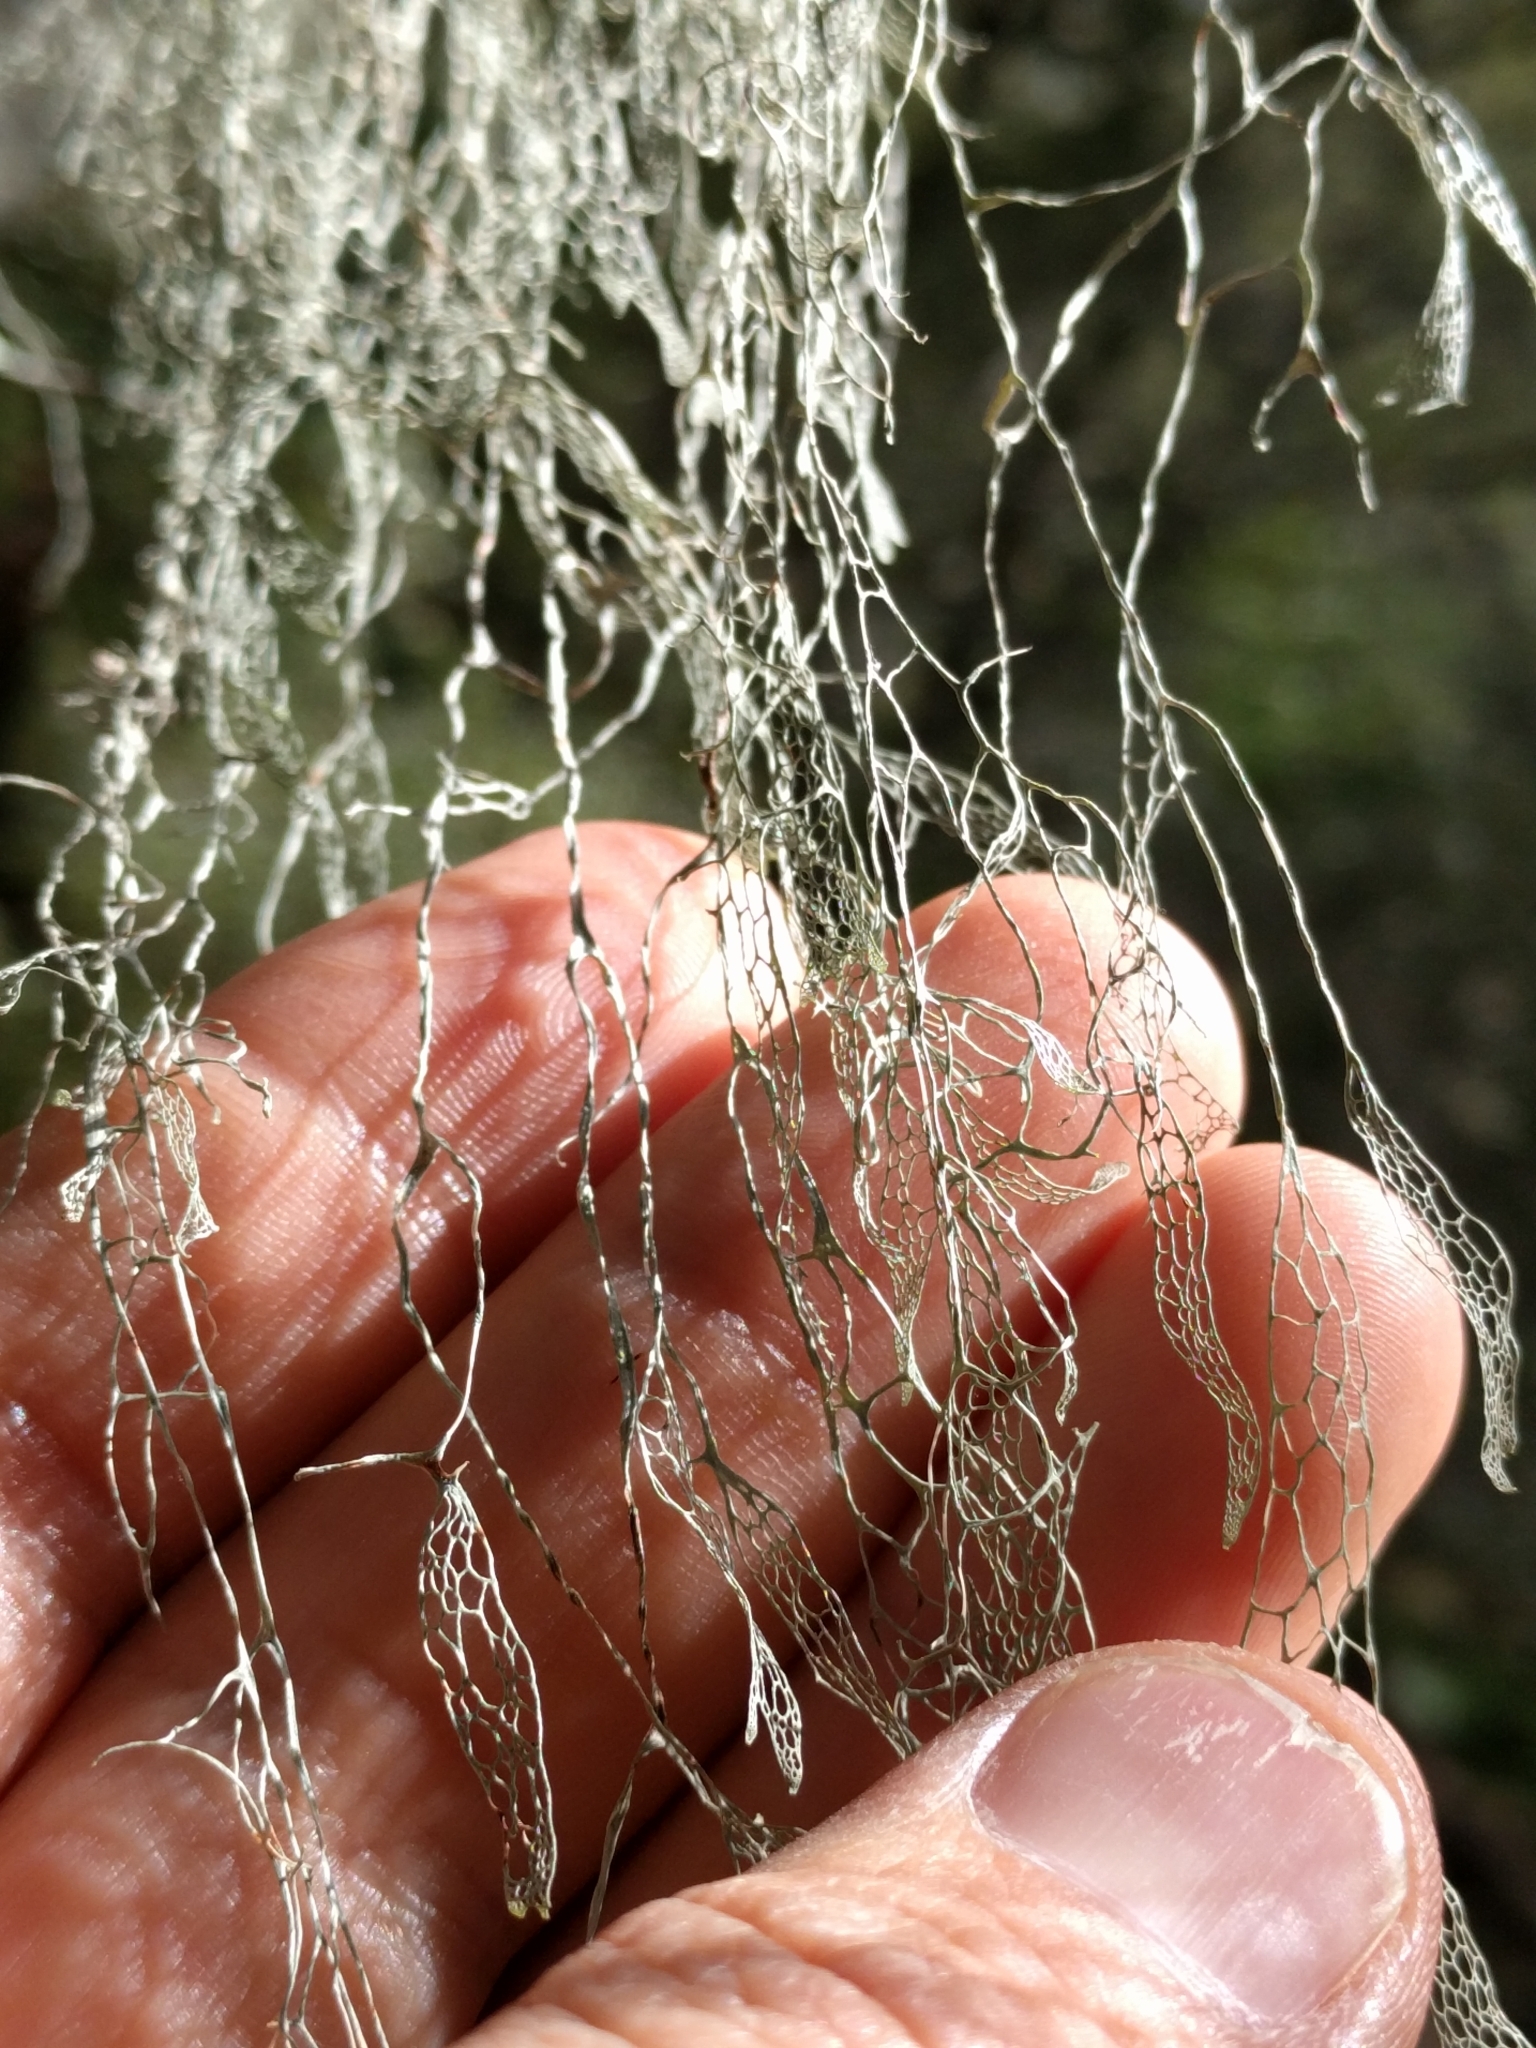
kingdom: Fungi
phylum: Ascomycota
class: Lecanoromycetes
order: Lecanorales
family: Ramalinaceae
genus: Ramalina
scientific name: Ramalina menziesii
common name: Lace lichen
